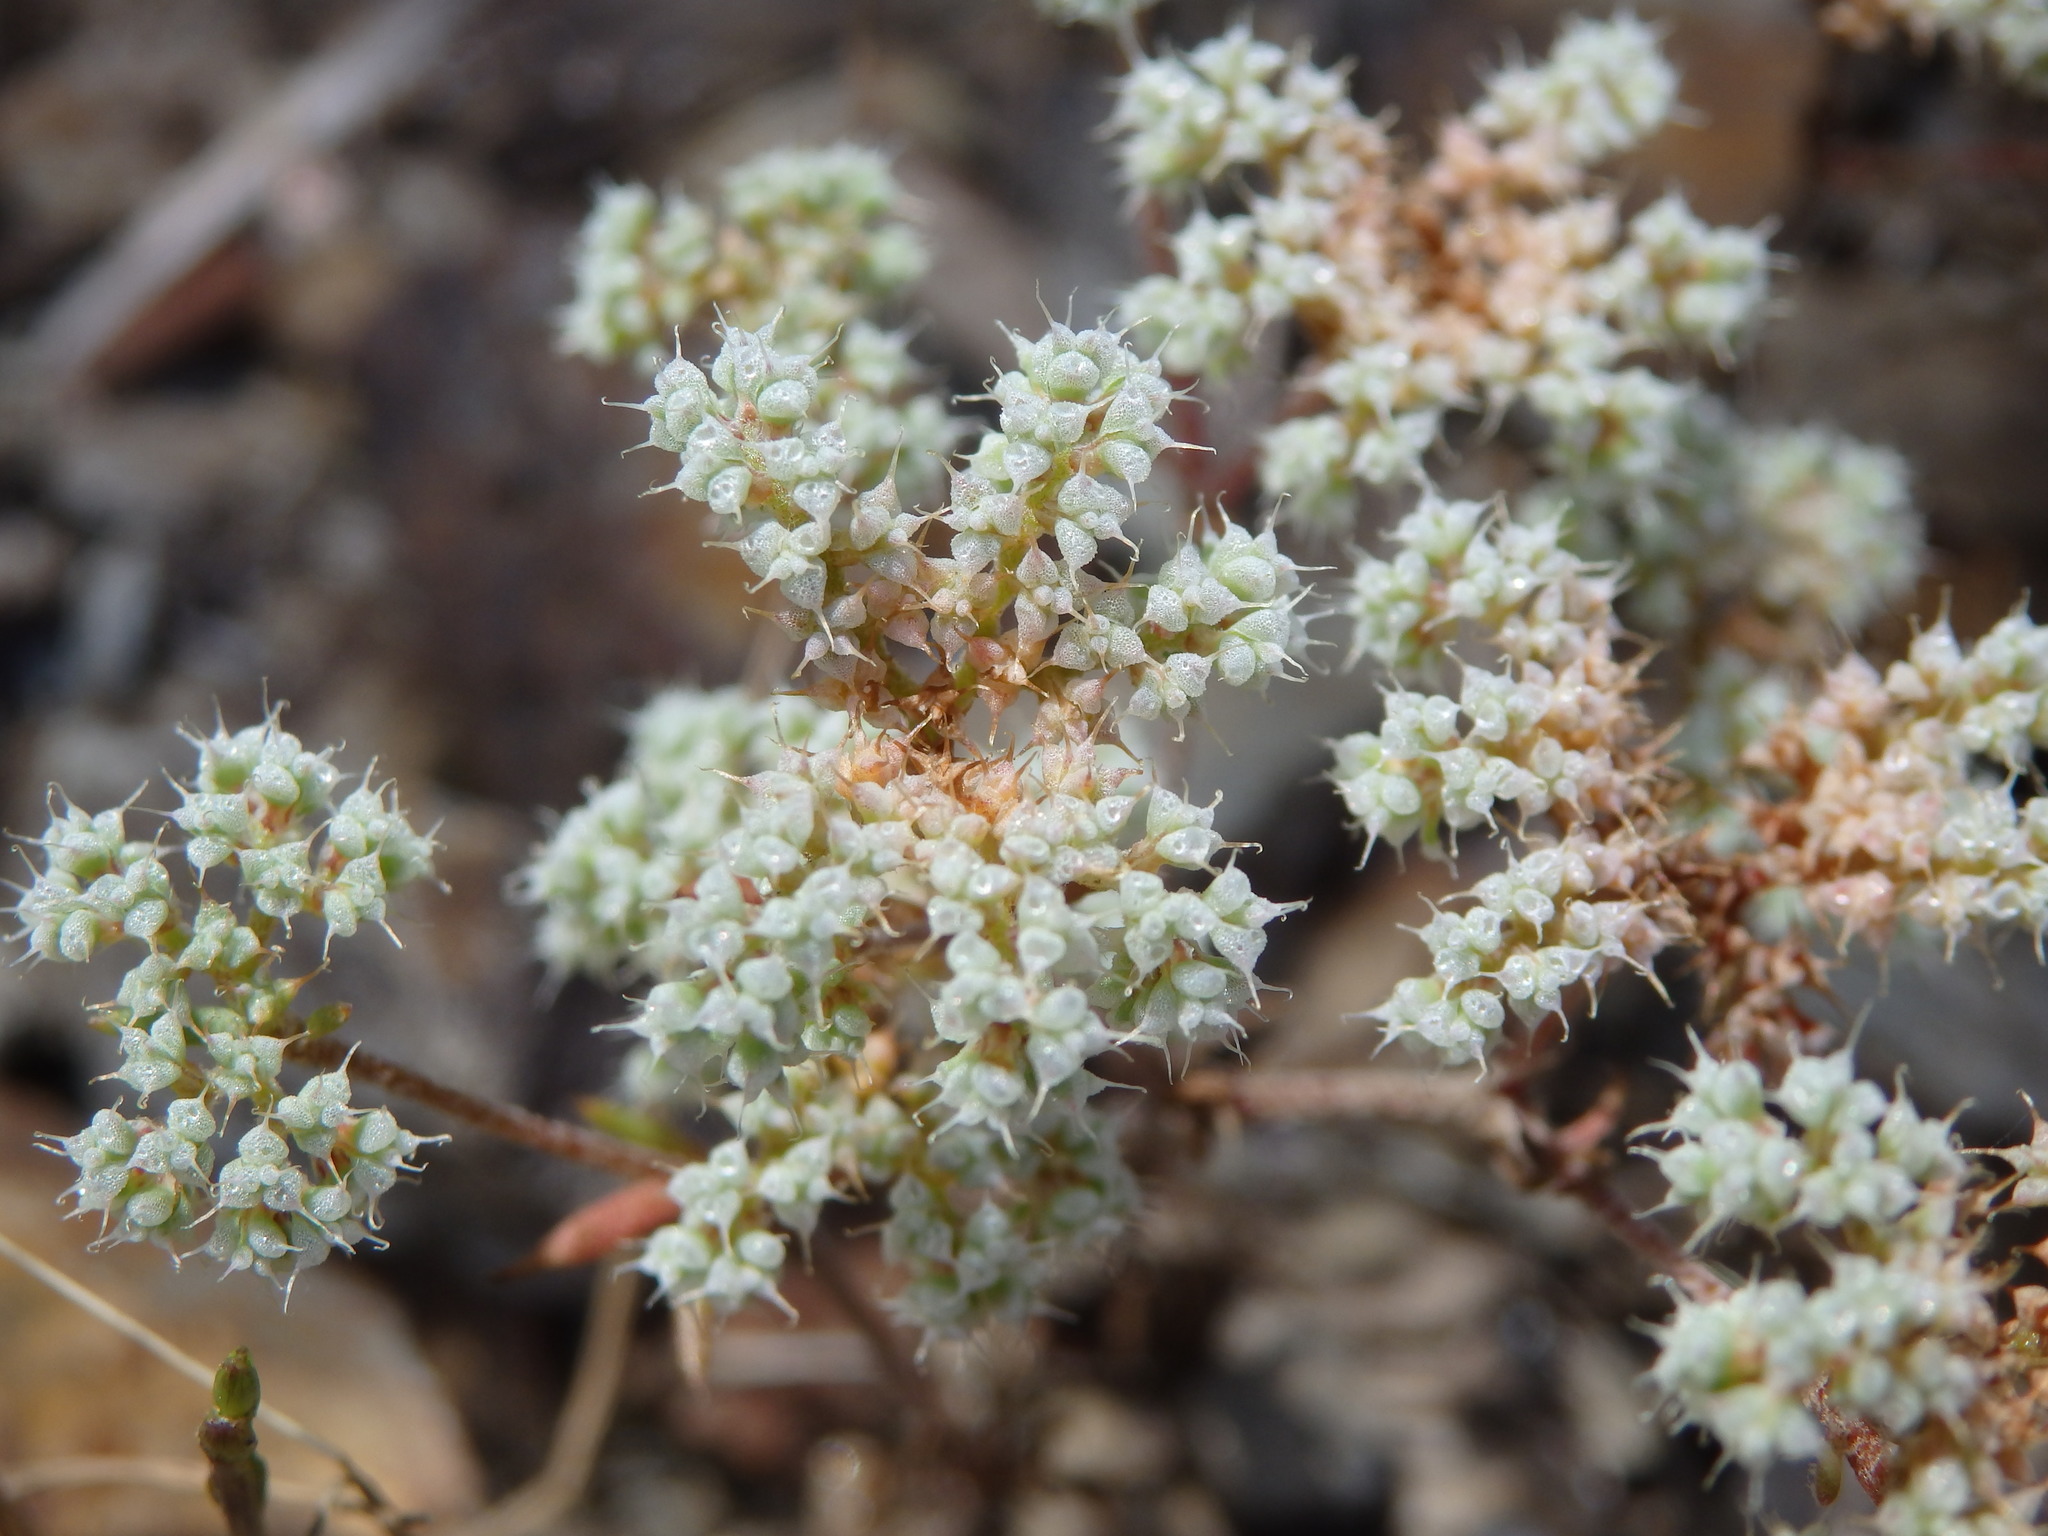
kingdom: Plantae
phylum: Tracheophyta
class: Magnoliopsida
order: Caryophyllales
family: Caryophyllaceae
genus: Chaetonychia
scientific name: Chaetonychia cymosa
